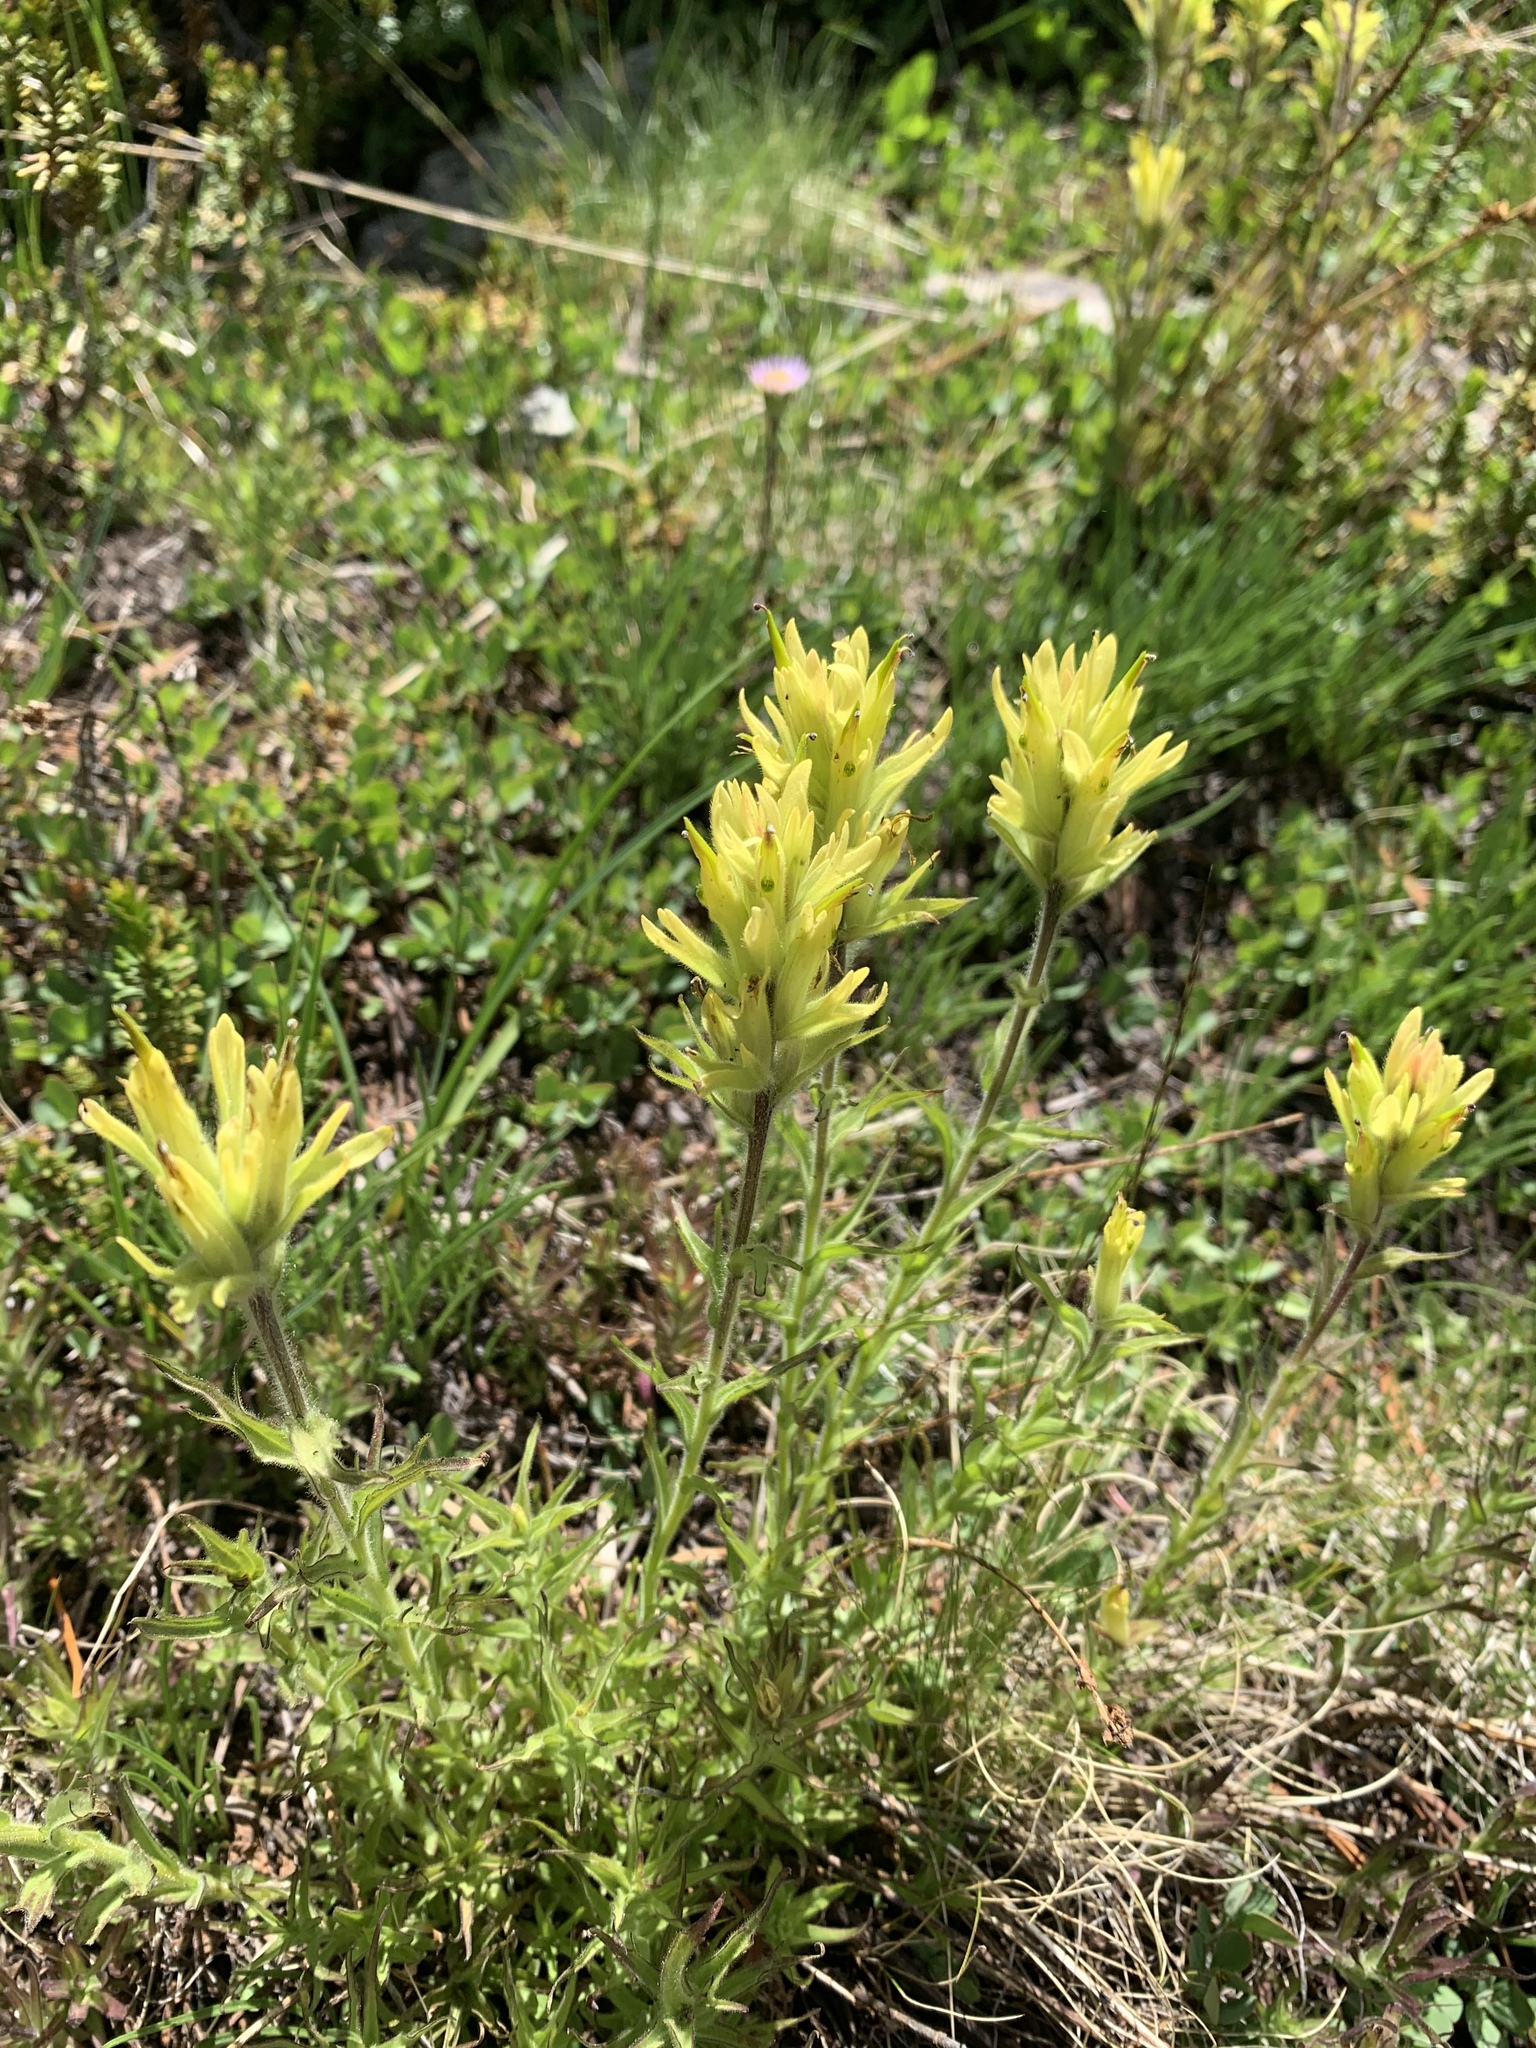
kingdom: Plantae
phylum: Tracheophyta
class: Magnoliopsida
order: Lamiales
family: Orobanchaceae
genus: Castilleja
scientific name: Castilleja peirsonii
